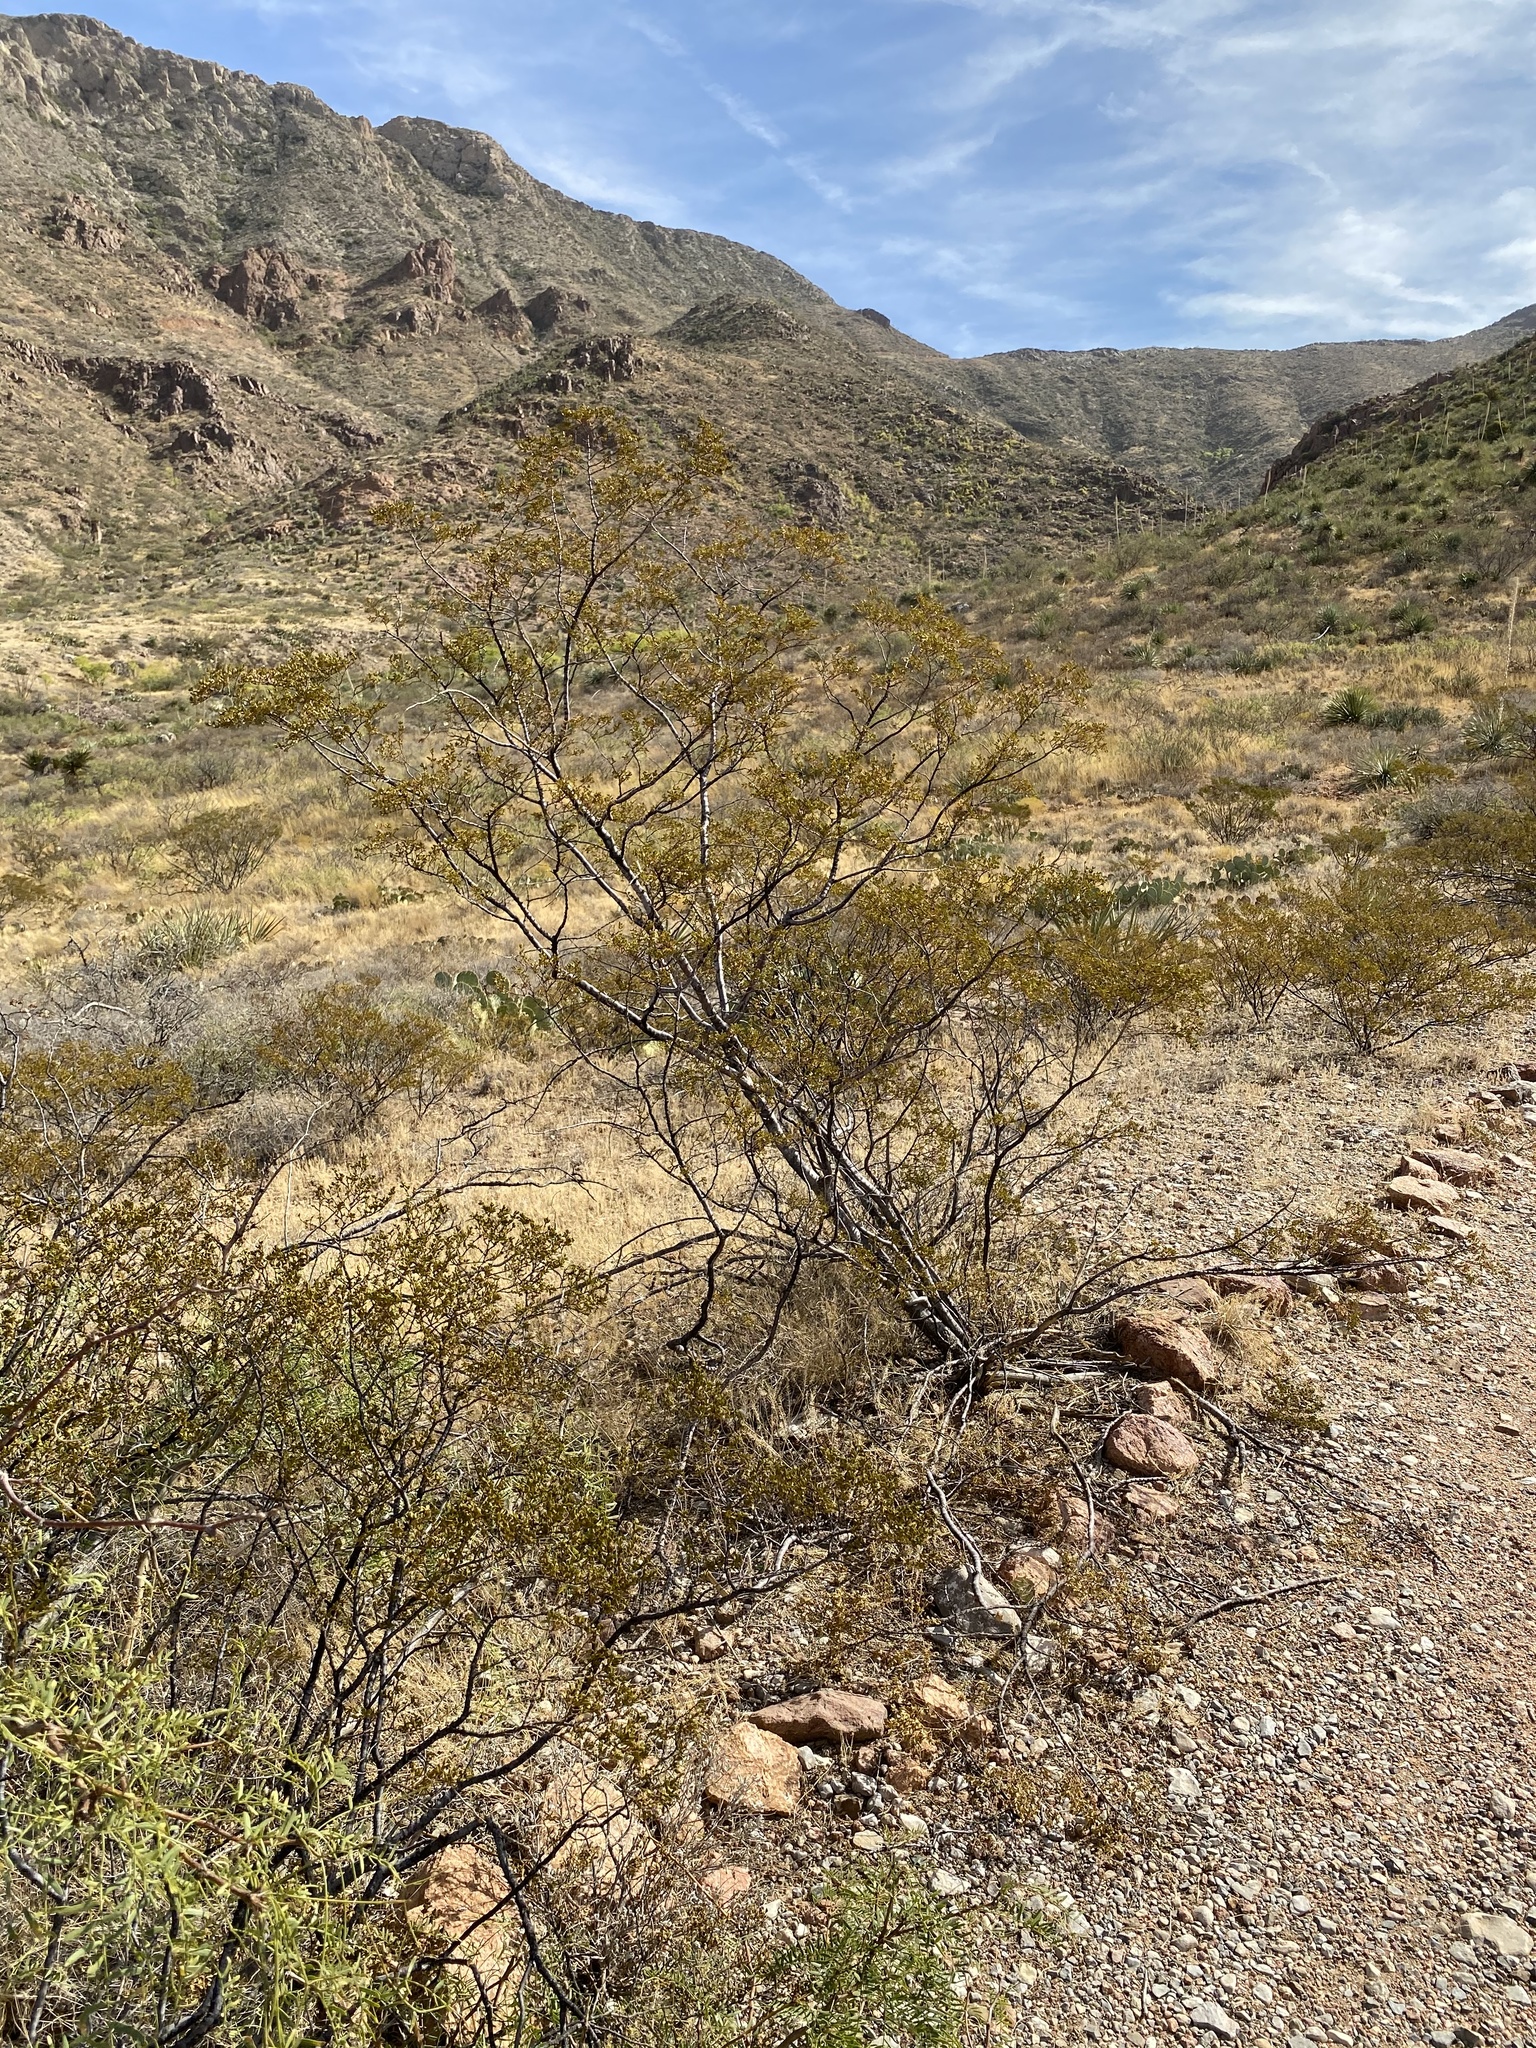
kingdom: Plantae
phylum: Tracheophyta
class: Magnoliopsida
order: Zygophyllales
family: Zygophyllaceae
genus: Larrea
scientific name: Larrea tridentata
